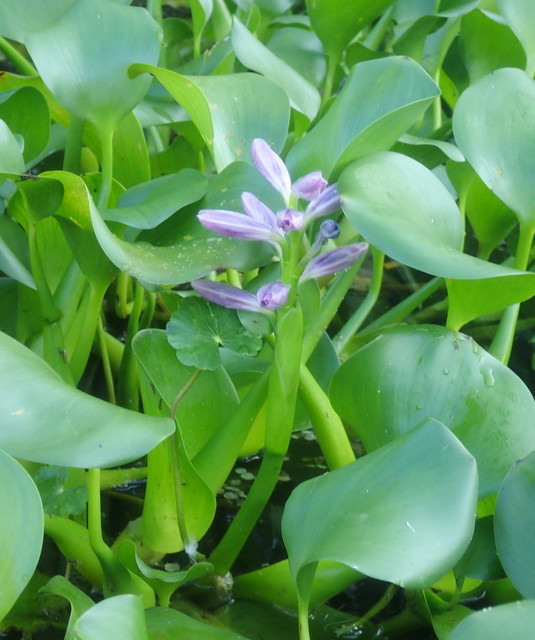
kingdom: Plantae
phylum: Tracheophyta
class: Liliopsida
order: Commelinales
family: Pontederiaceae
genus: Pontederia
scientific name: Pontederia crassipes
